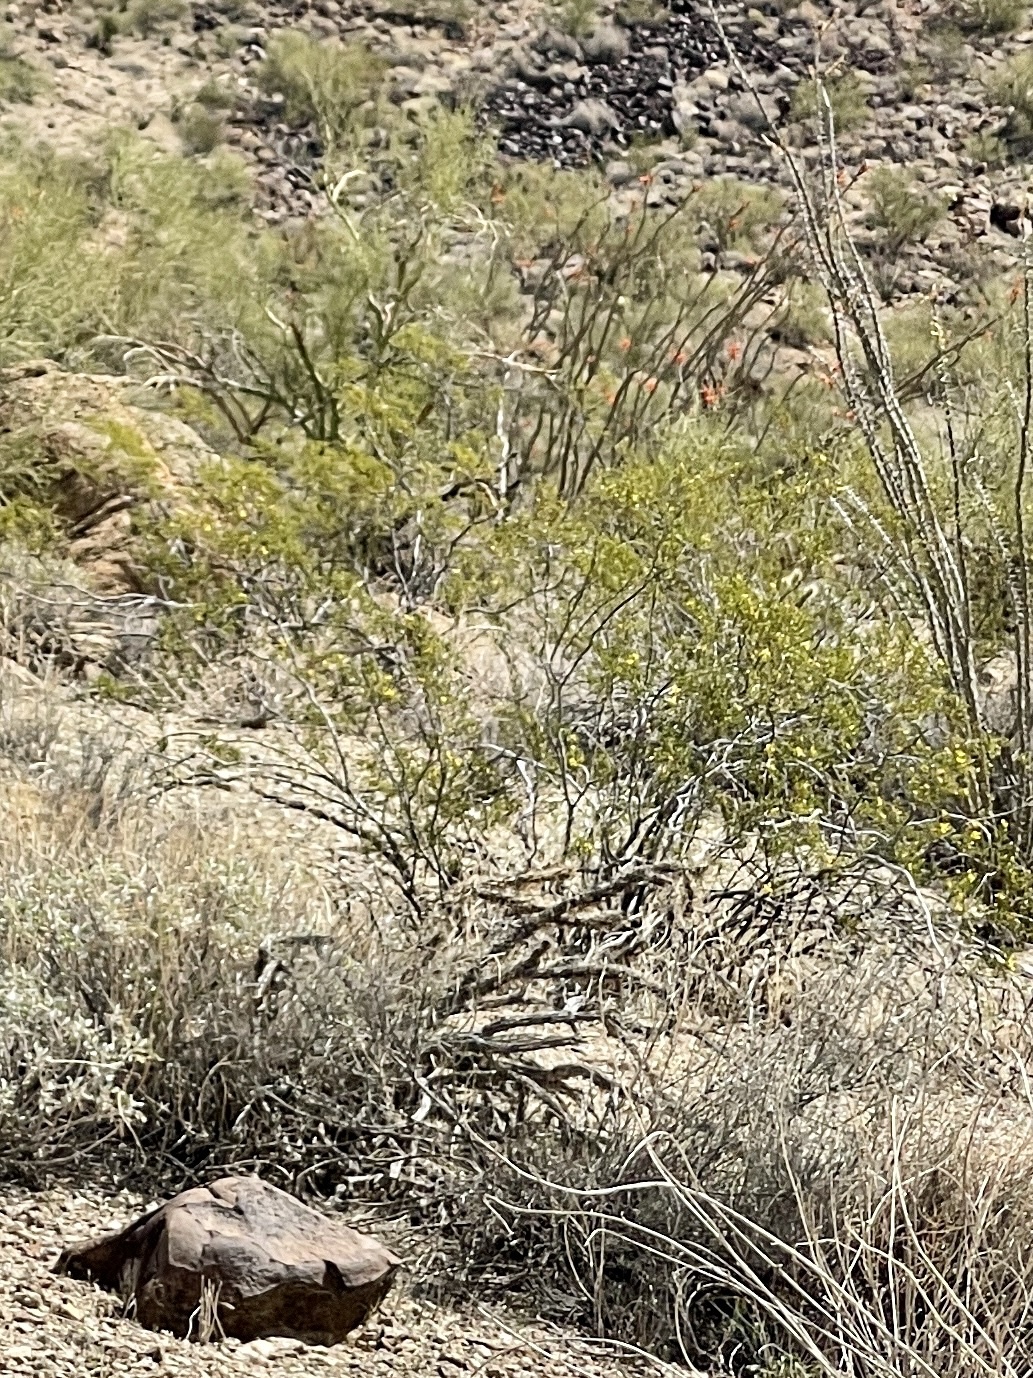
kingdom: Plantae
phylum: Tracheophyta
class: Magnoliopsida
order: Zygophyllales
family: Zygophyllaceae
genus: Larrea
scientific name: Larrea tridentata
